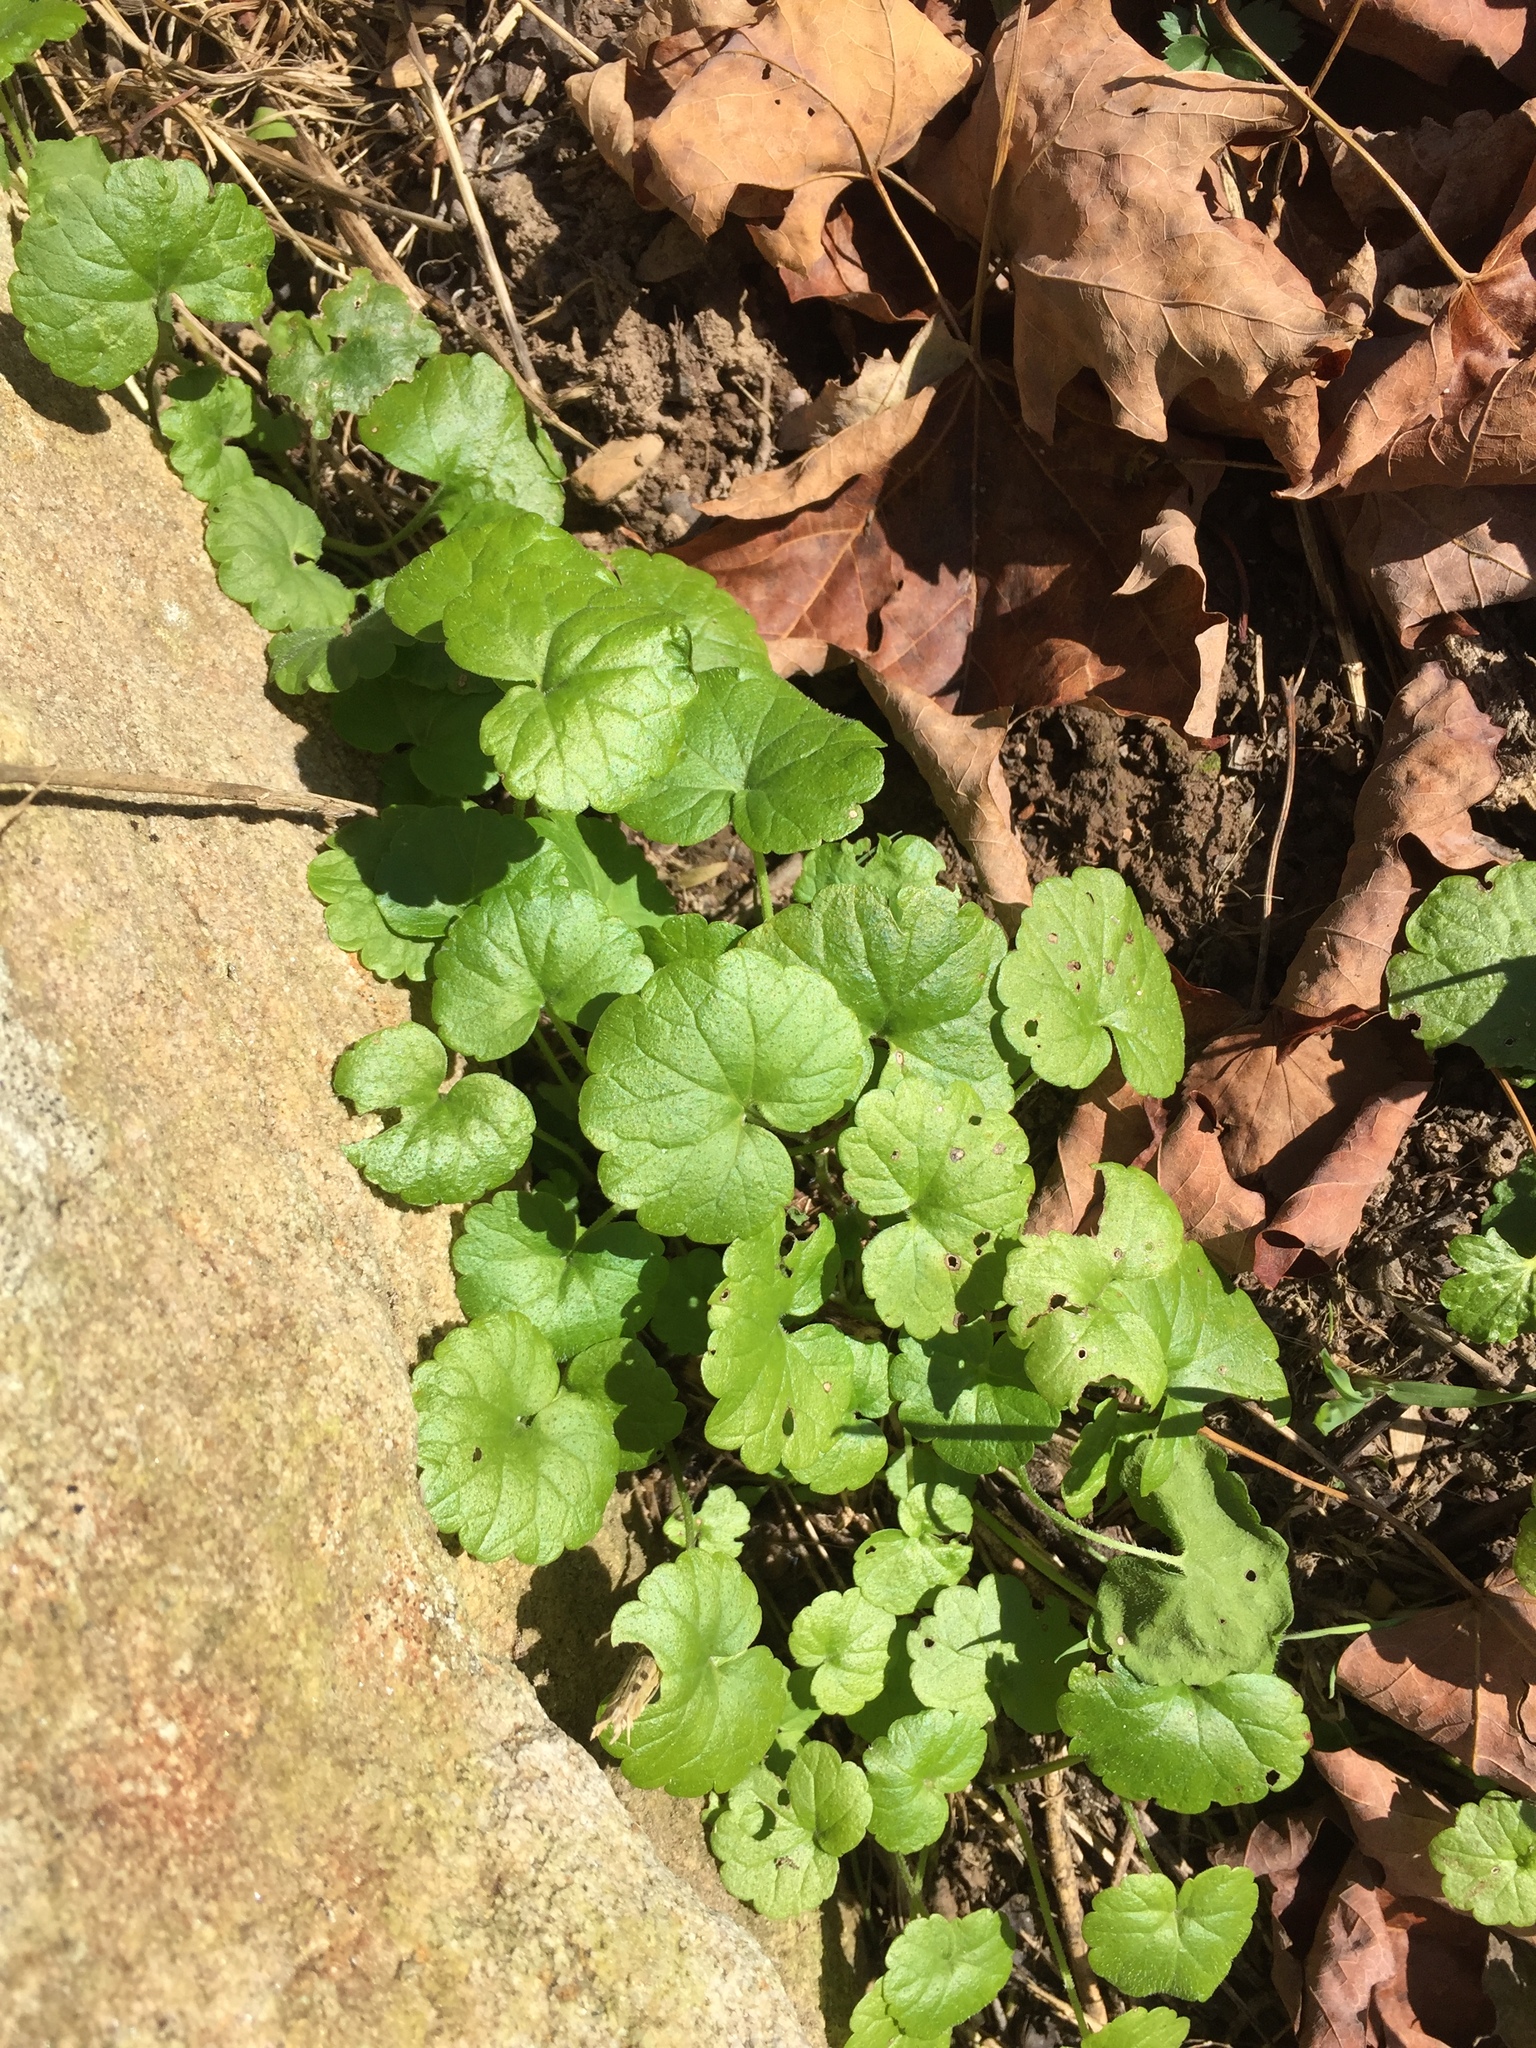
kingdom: Plantae
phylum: Tracheophyta
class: Magnoliopsida
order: Lamiales
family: Lamiaceae
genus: Glechoma
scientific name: Glechoma hederacea
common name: Ground ivy
